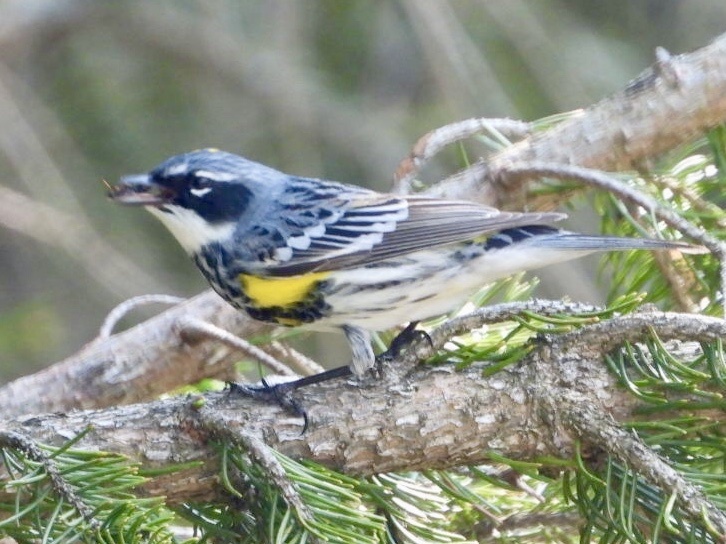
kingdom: Animalia
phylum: Chordata
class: Aves
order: Passeriformes
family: Parulidae
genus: Setophaga
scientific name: Setophaga coronata
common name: Myrtle warbler
